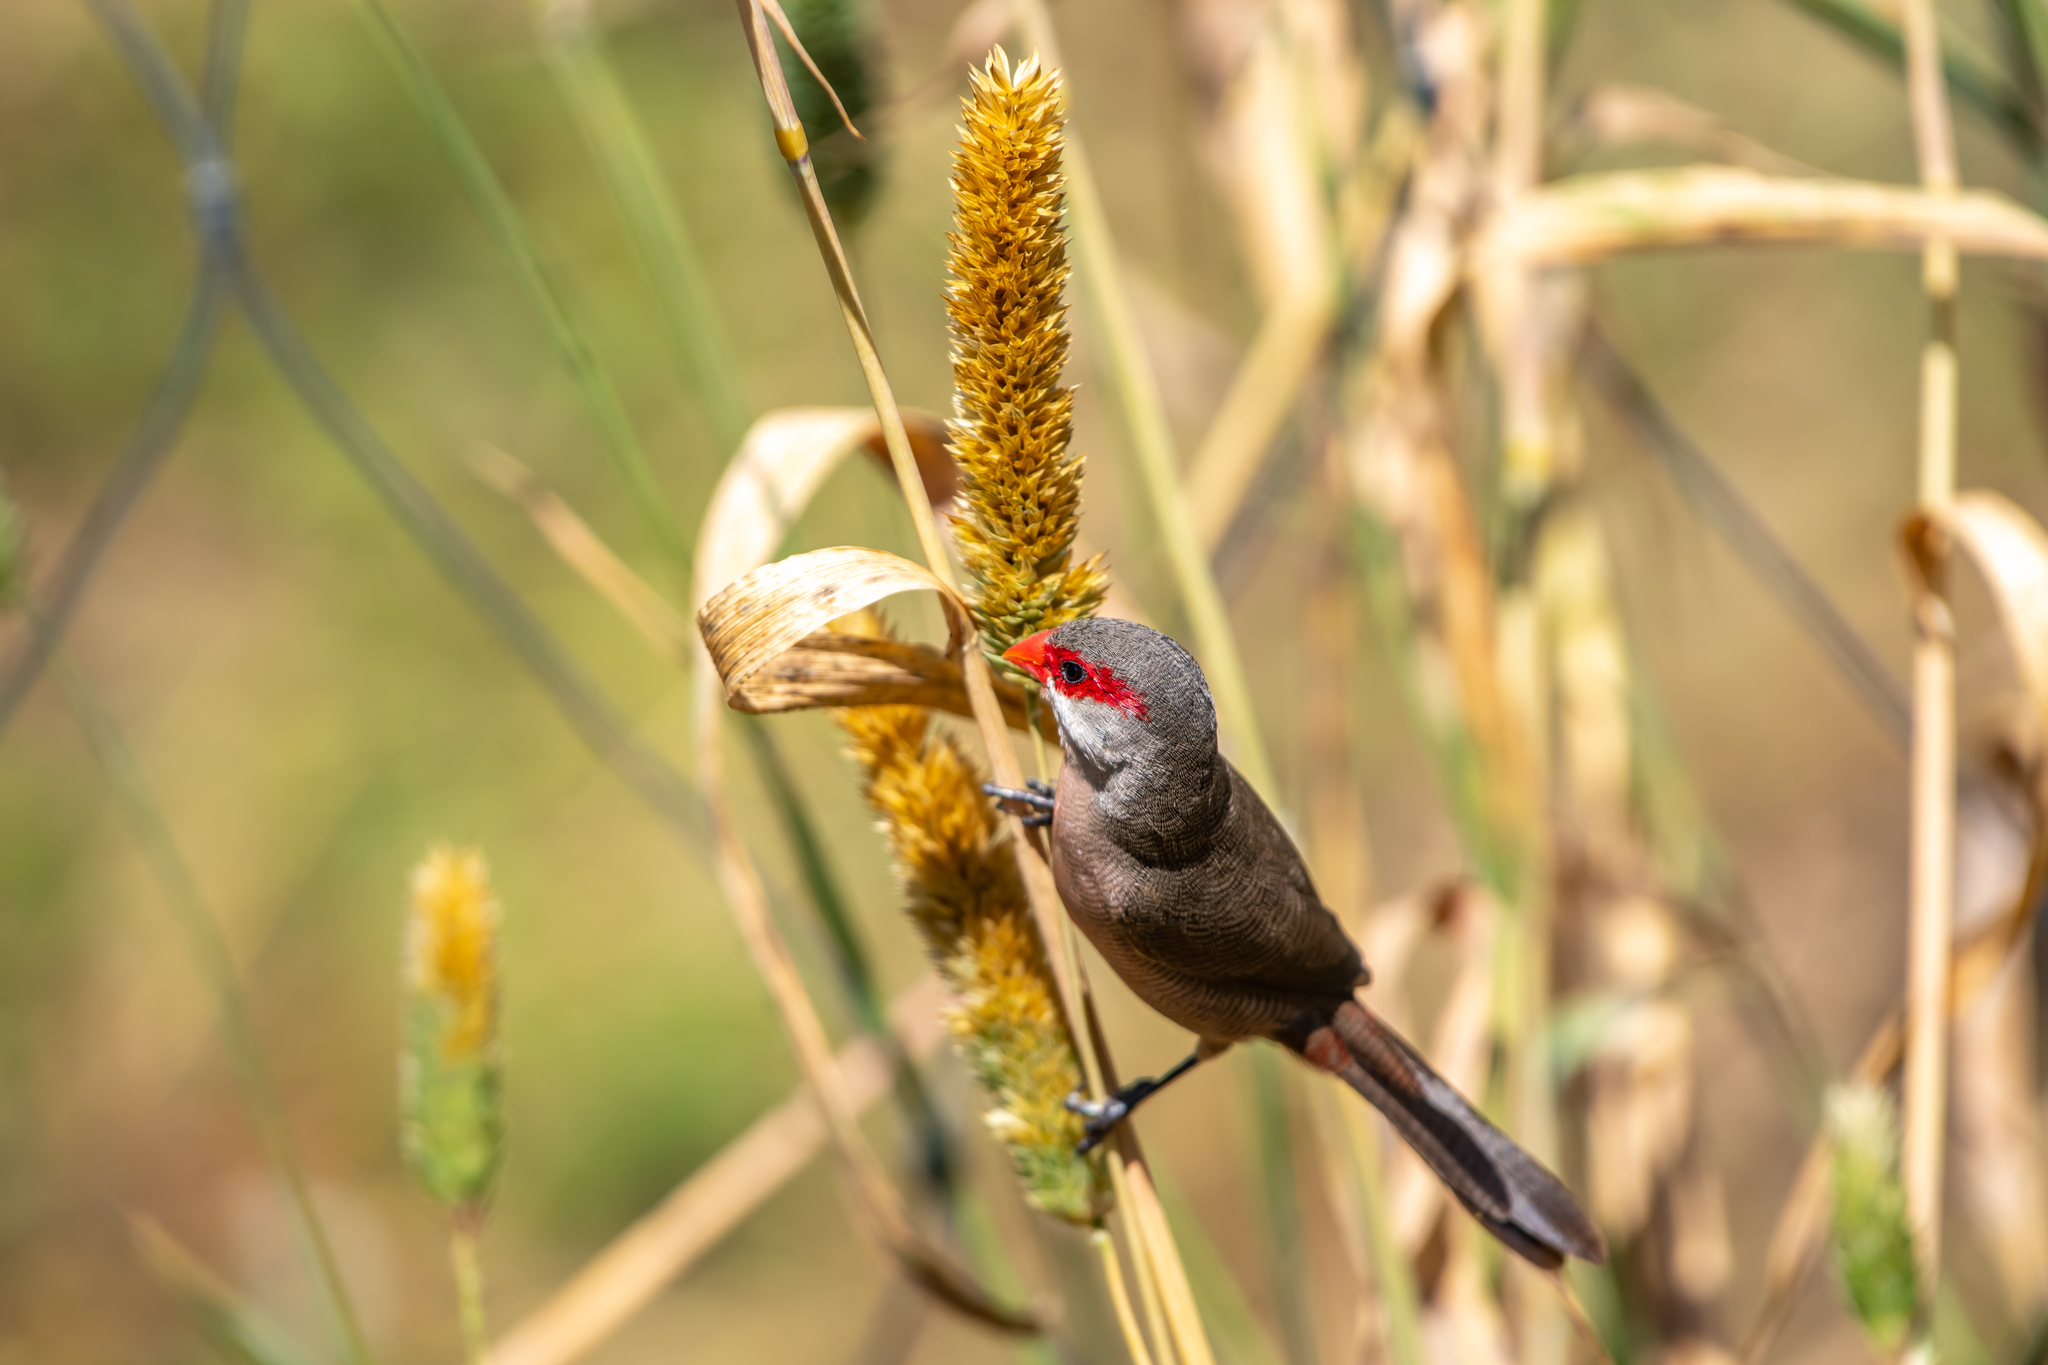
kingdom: Animalia
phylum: Chordata
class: Aves
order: Passeriformes
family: Estrildidae
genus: Estrilda
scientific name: Estrilda astrild
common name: Common waxbill
